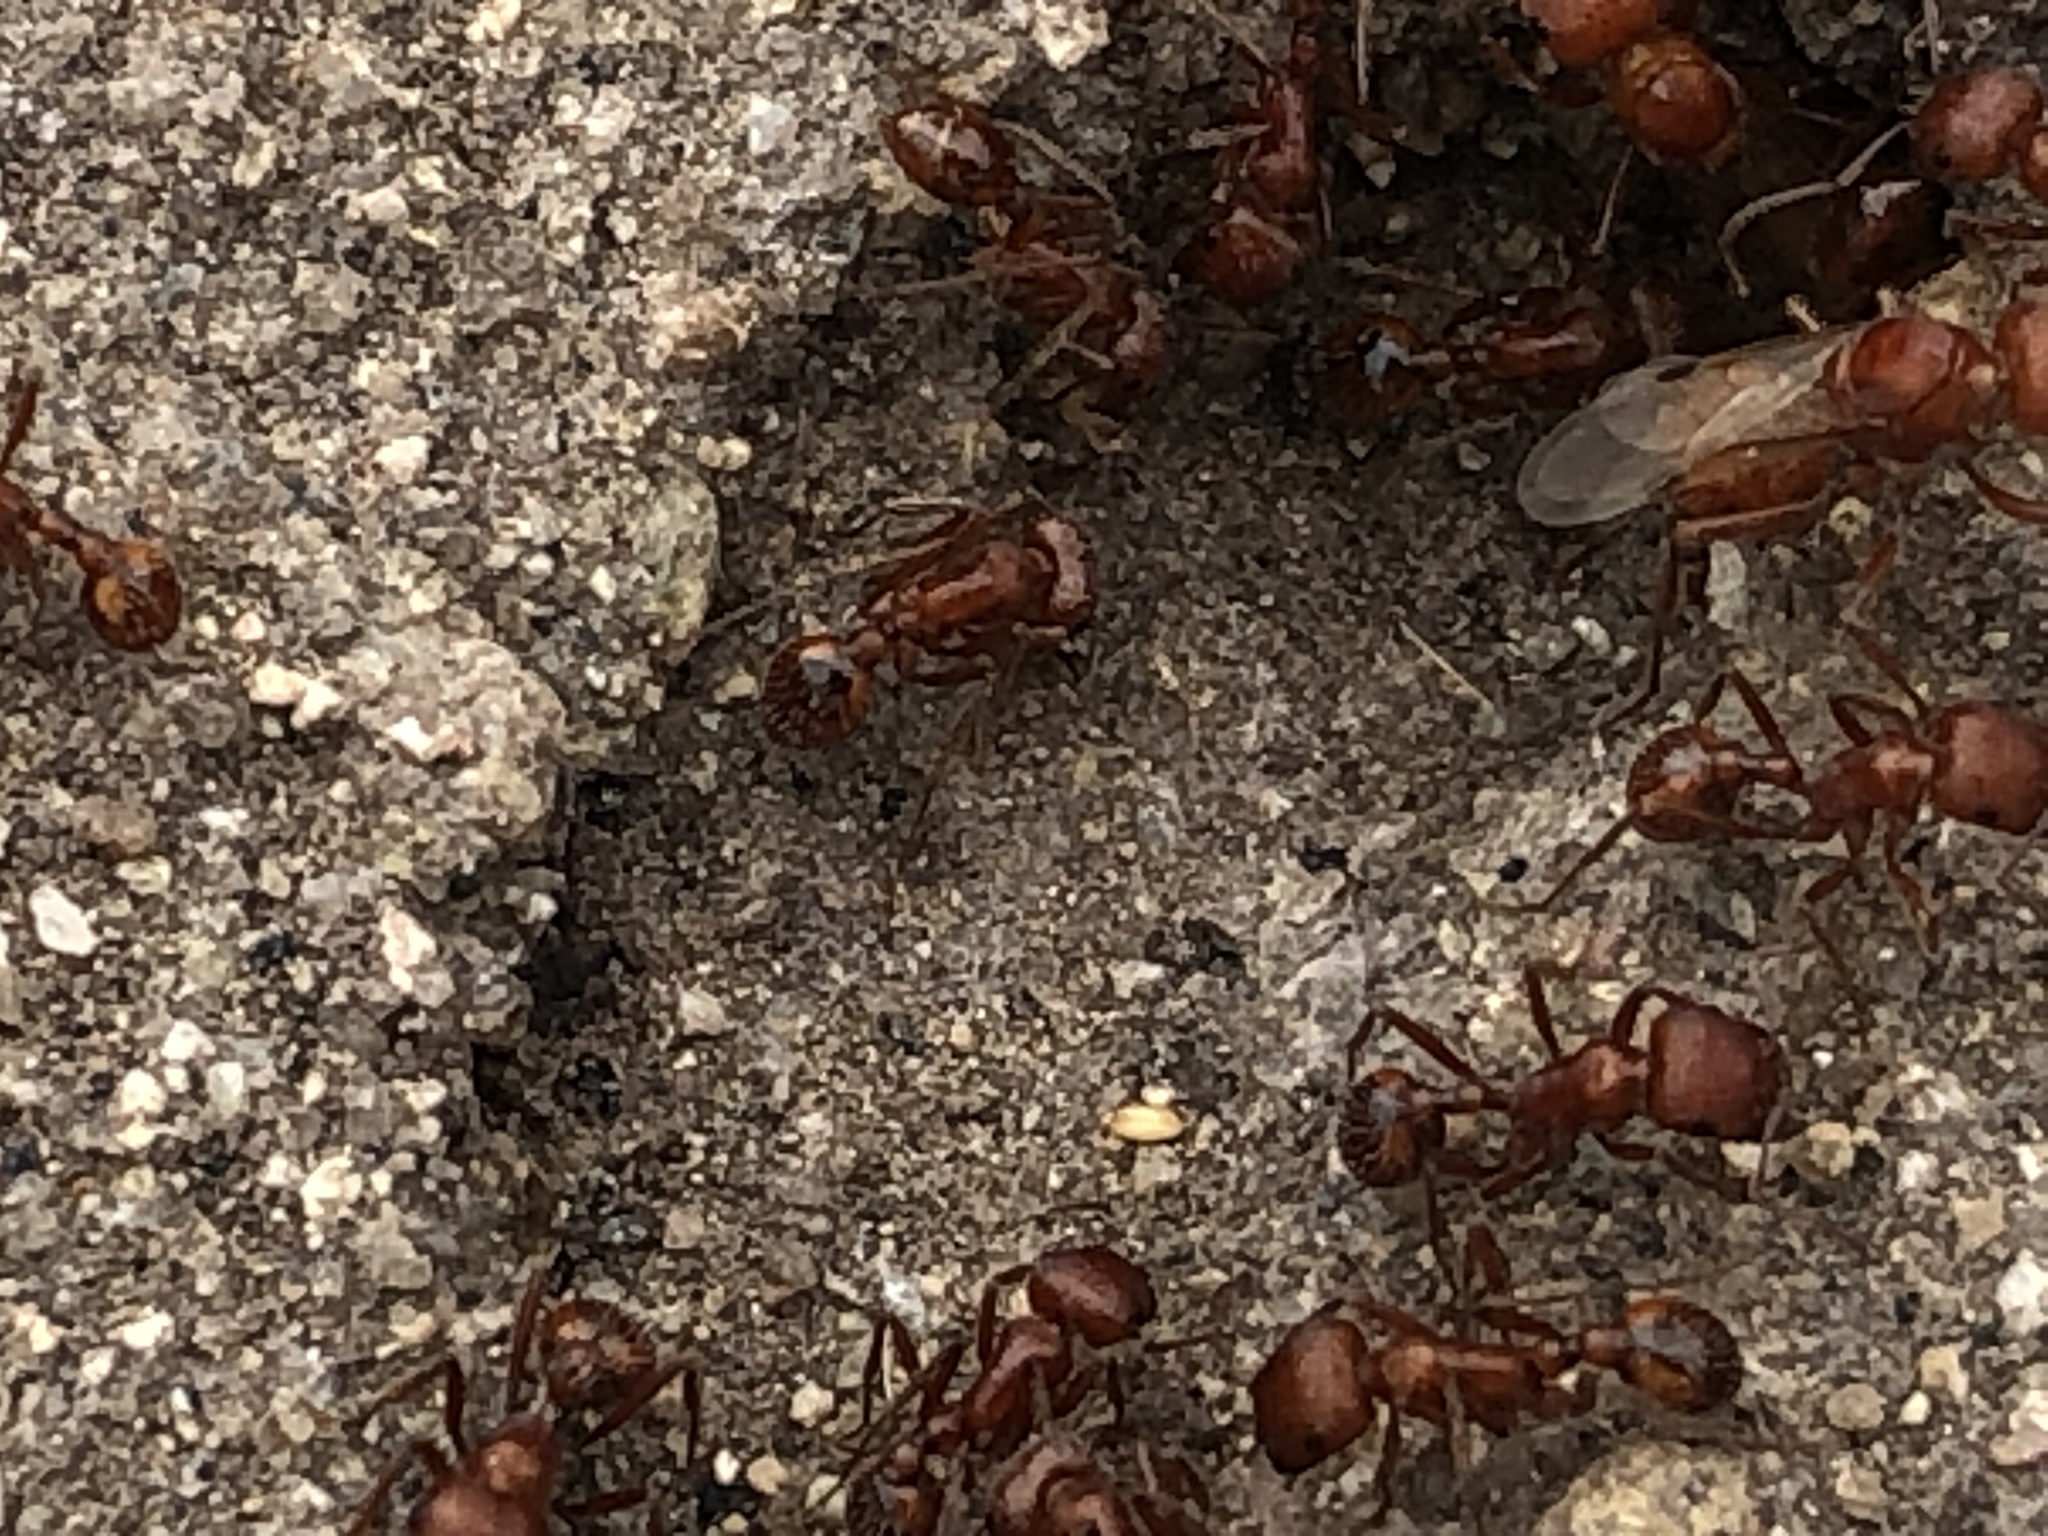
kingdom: Animalia
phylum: Arthropoda
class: Insecta
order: Hymenoptera
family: Formicidae
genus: Pogonomyrmex
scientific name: Pogonomyrmex subnitidus
